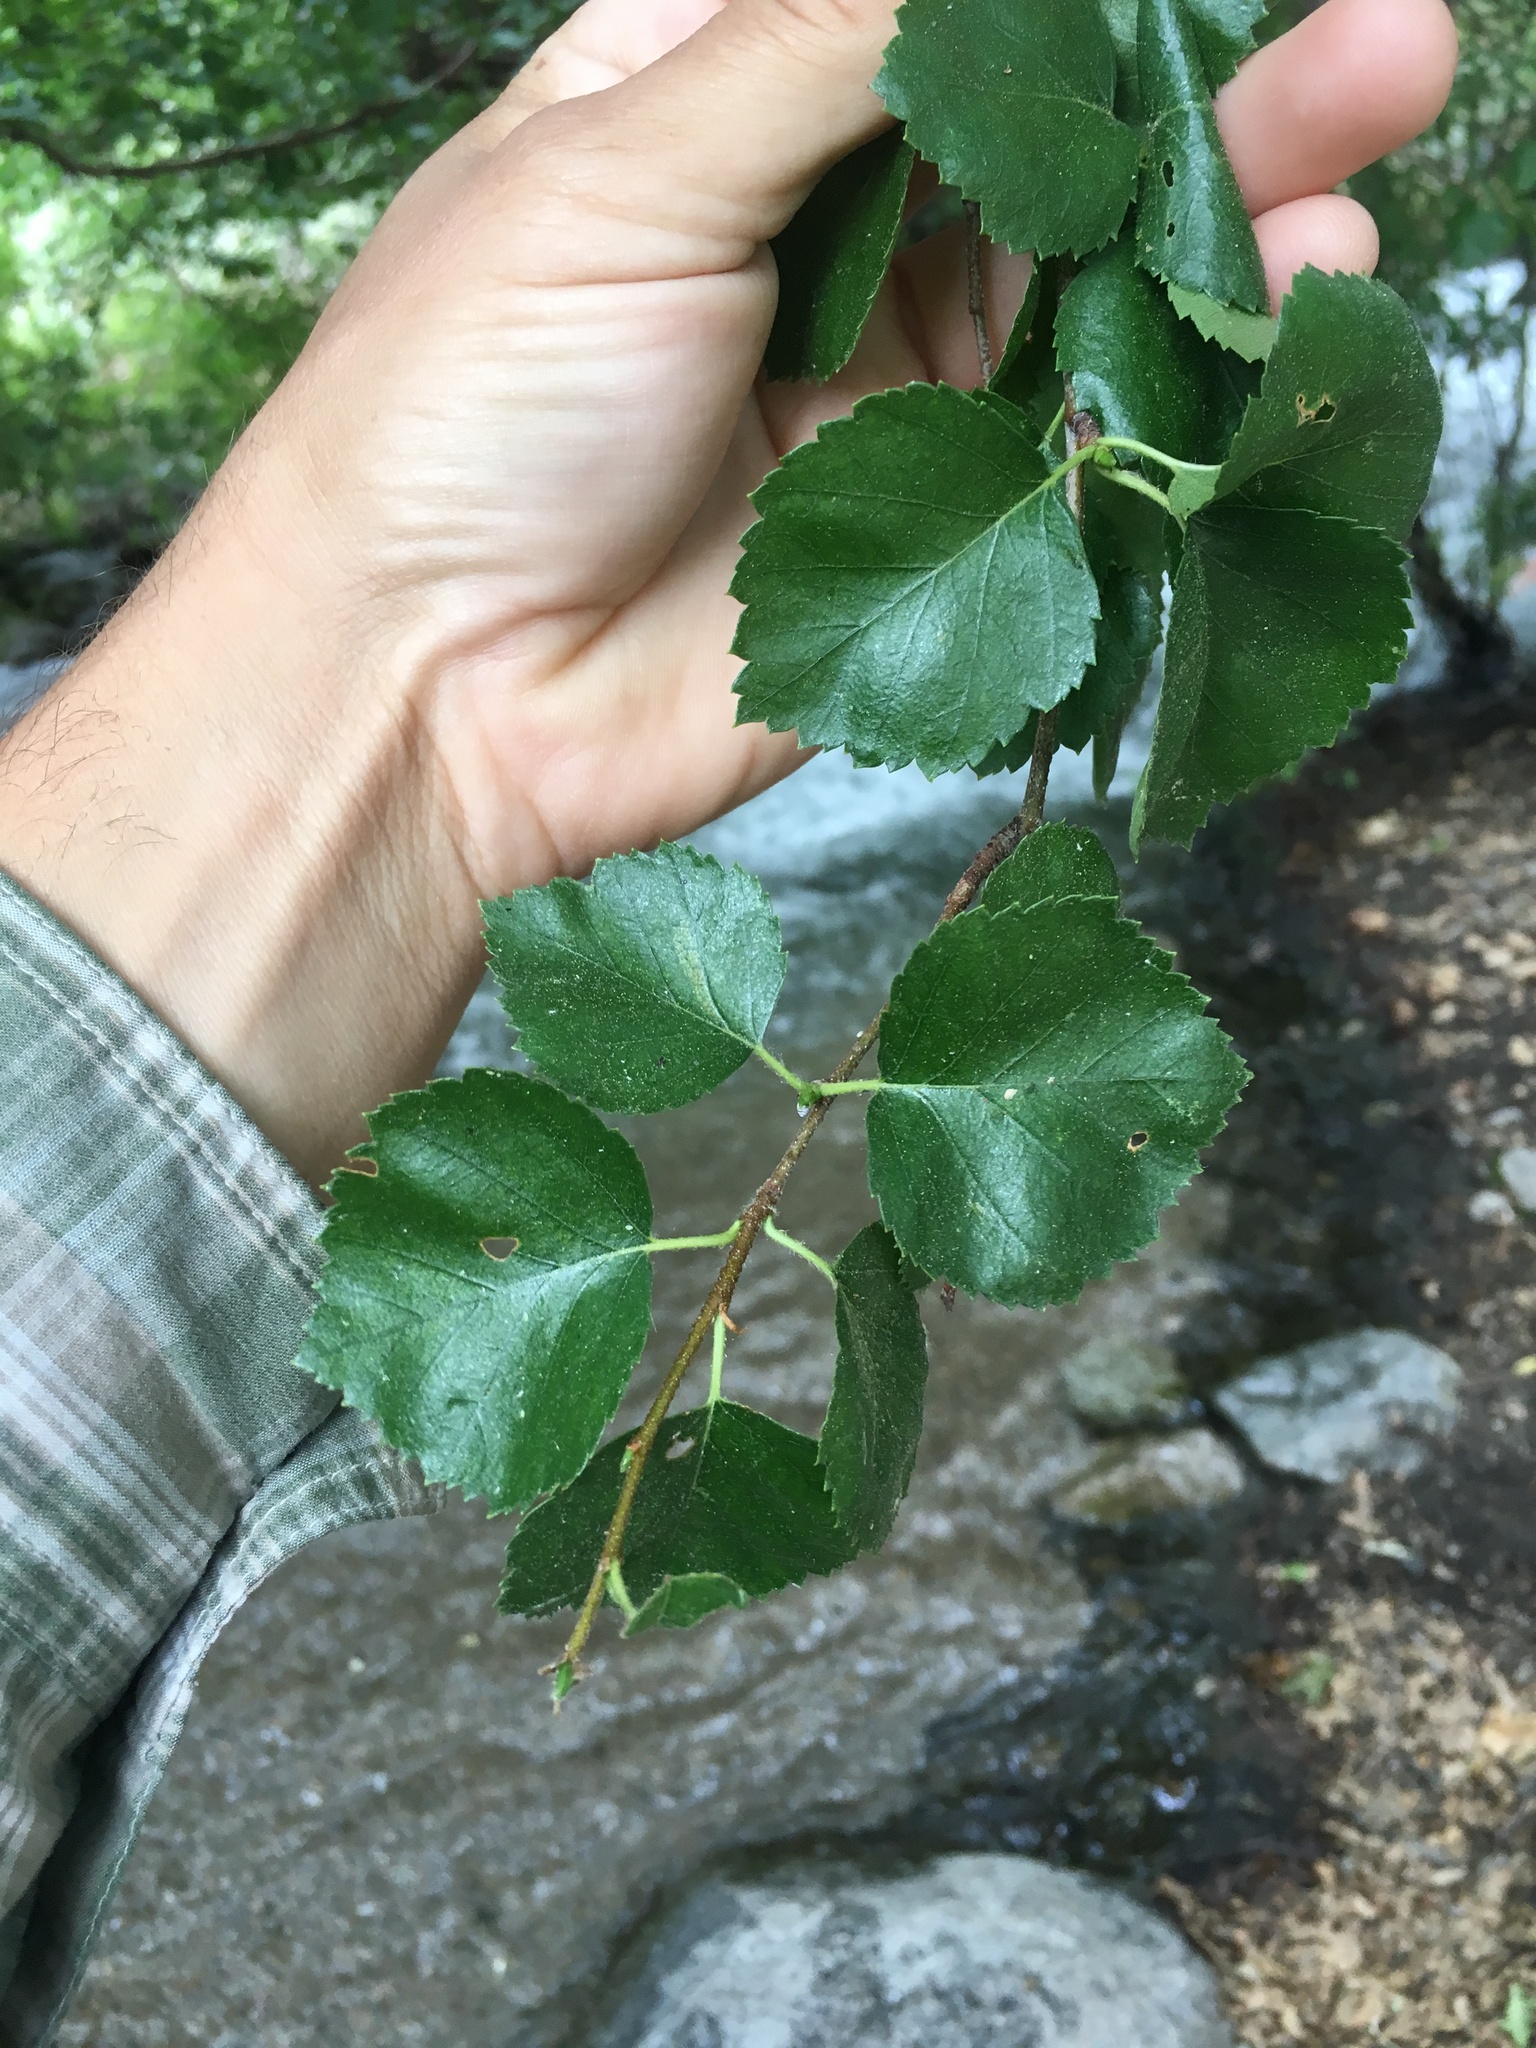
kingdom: Plantae
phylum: Tracheophyta
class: Magnoliopsida
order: Fagales
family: Betulaceae
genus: Betula
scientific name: Betula occidentalis
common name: River birch
